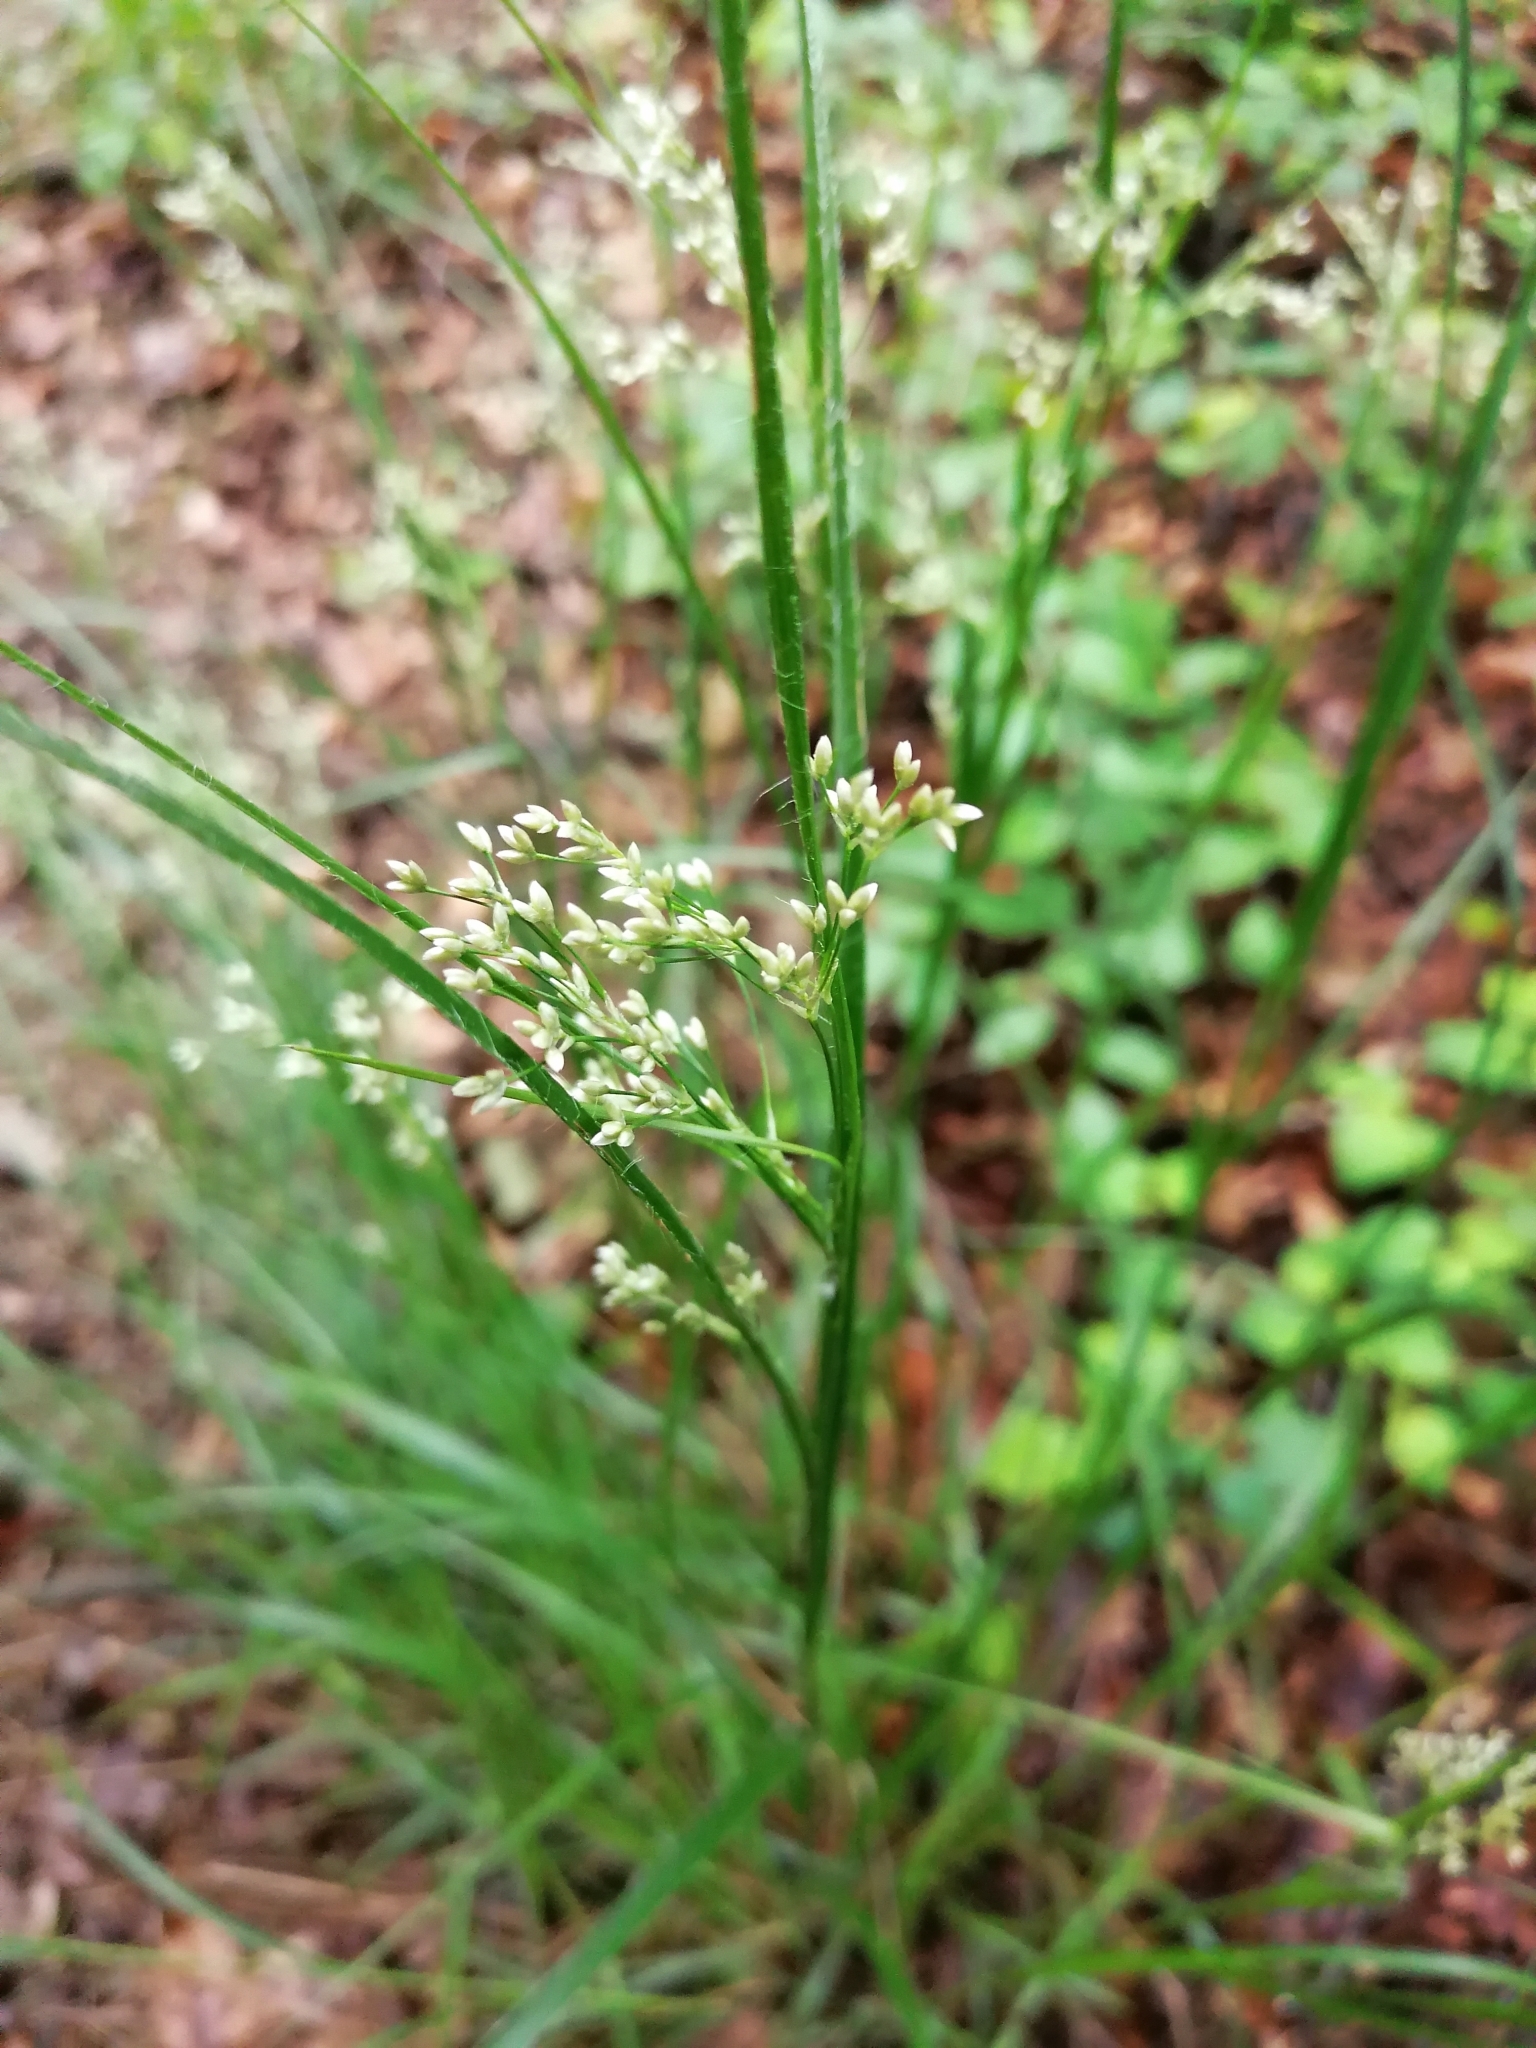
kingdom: Plantae
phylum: Tracheophyta
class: Liliopsida
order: Poales
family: Juncaceae
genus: Luzula
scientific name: Luzula luzuloides
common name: White wood-rush
